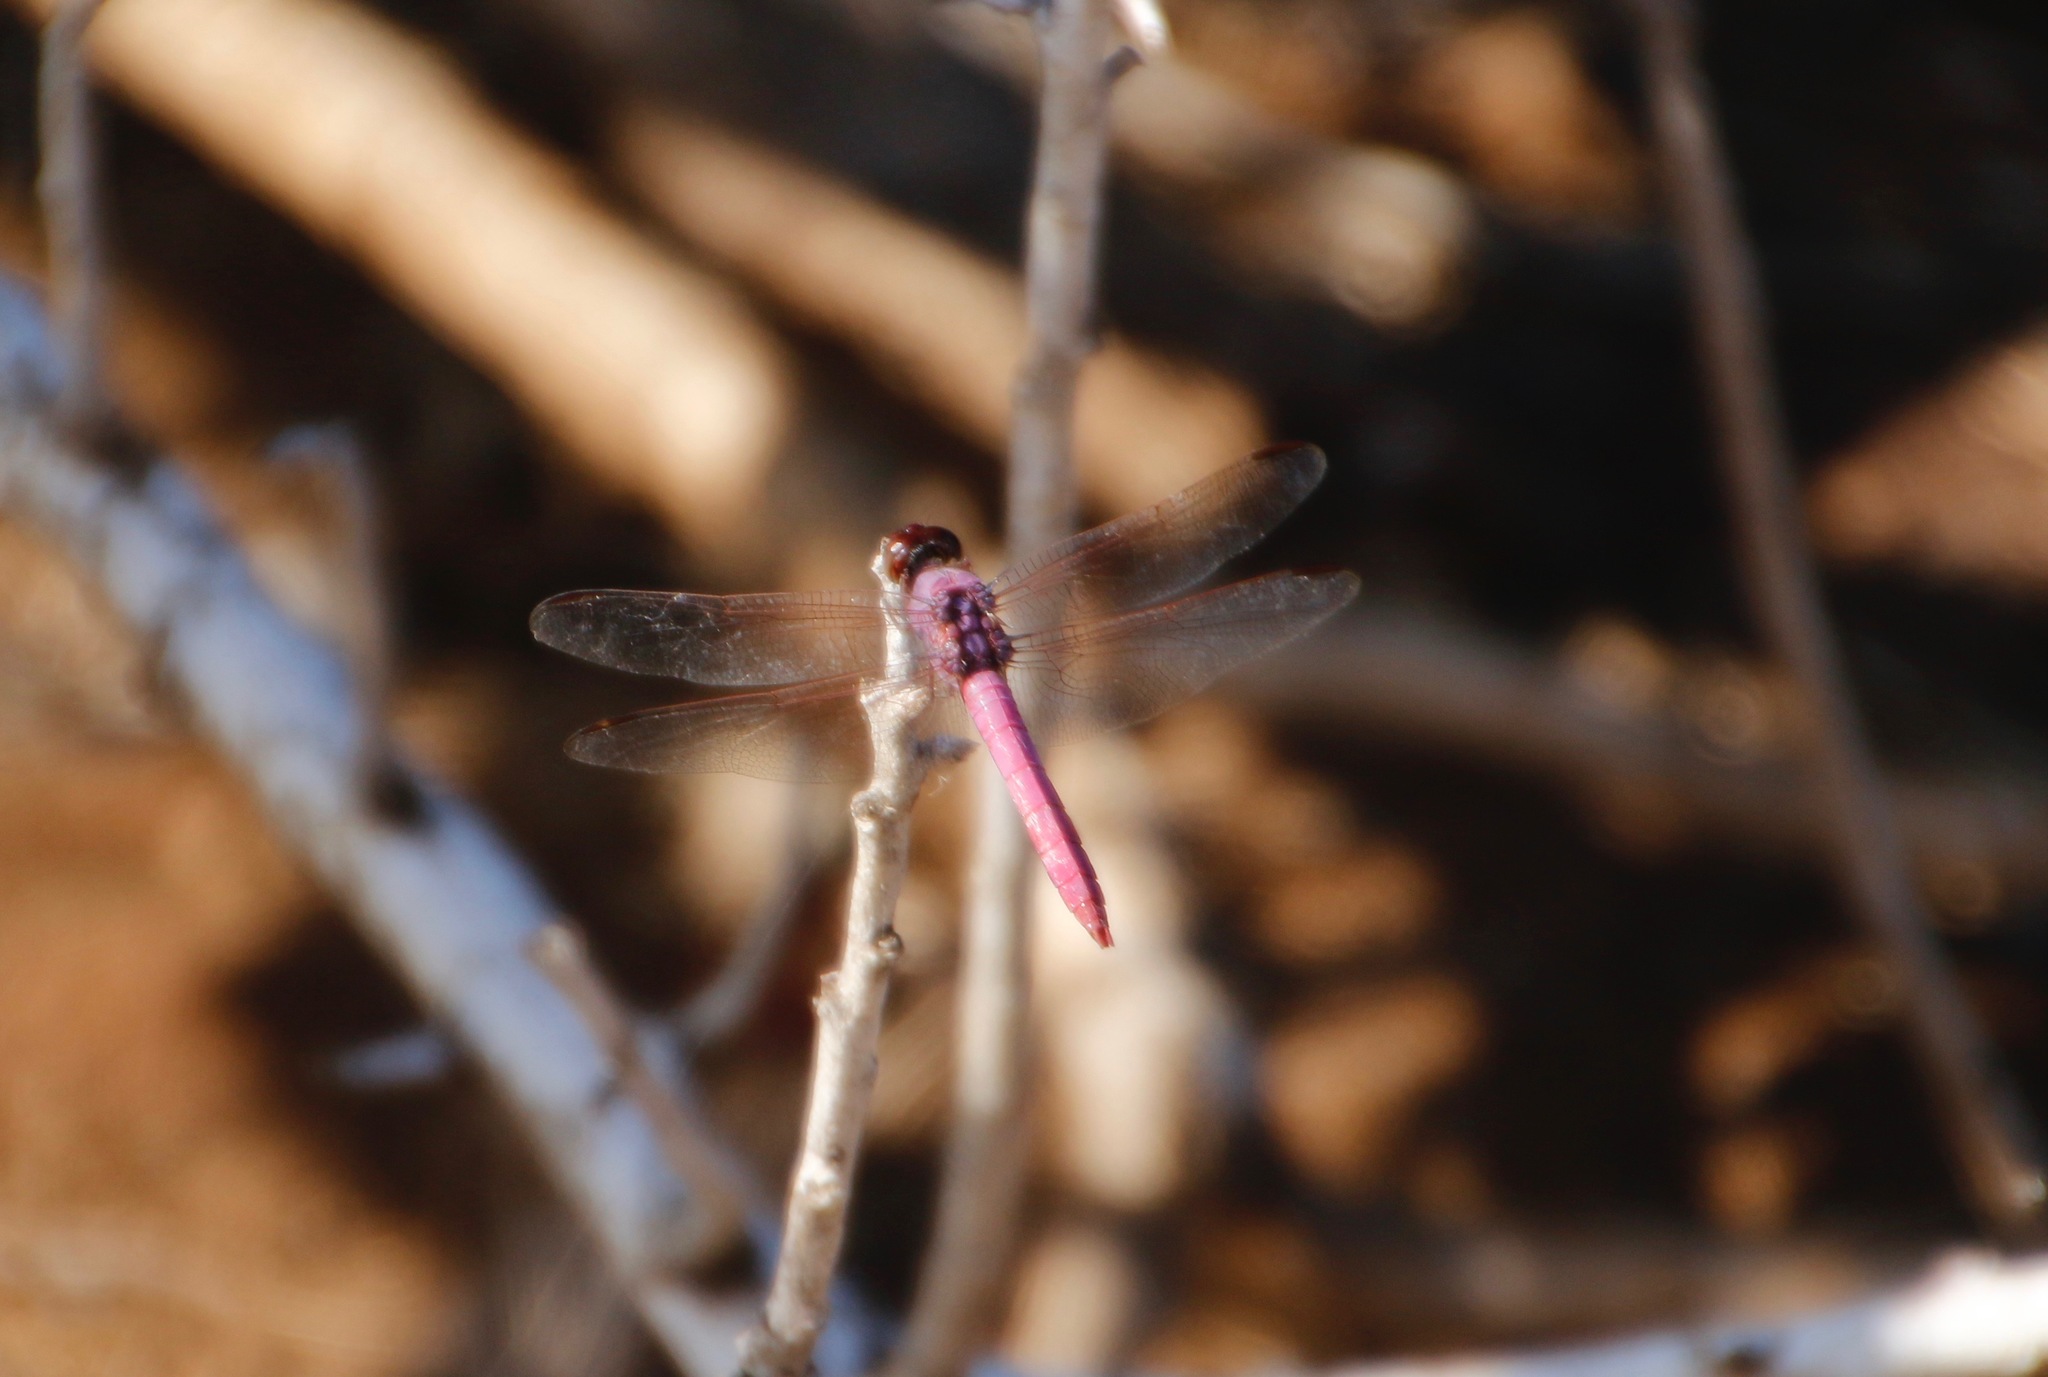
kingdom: Animalia
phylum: Arthropoda
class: Insecta
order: Odonata
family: Libellulidae
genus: Orthemis
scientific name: Orthemis ferruginea
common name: Roseate skimmer
